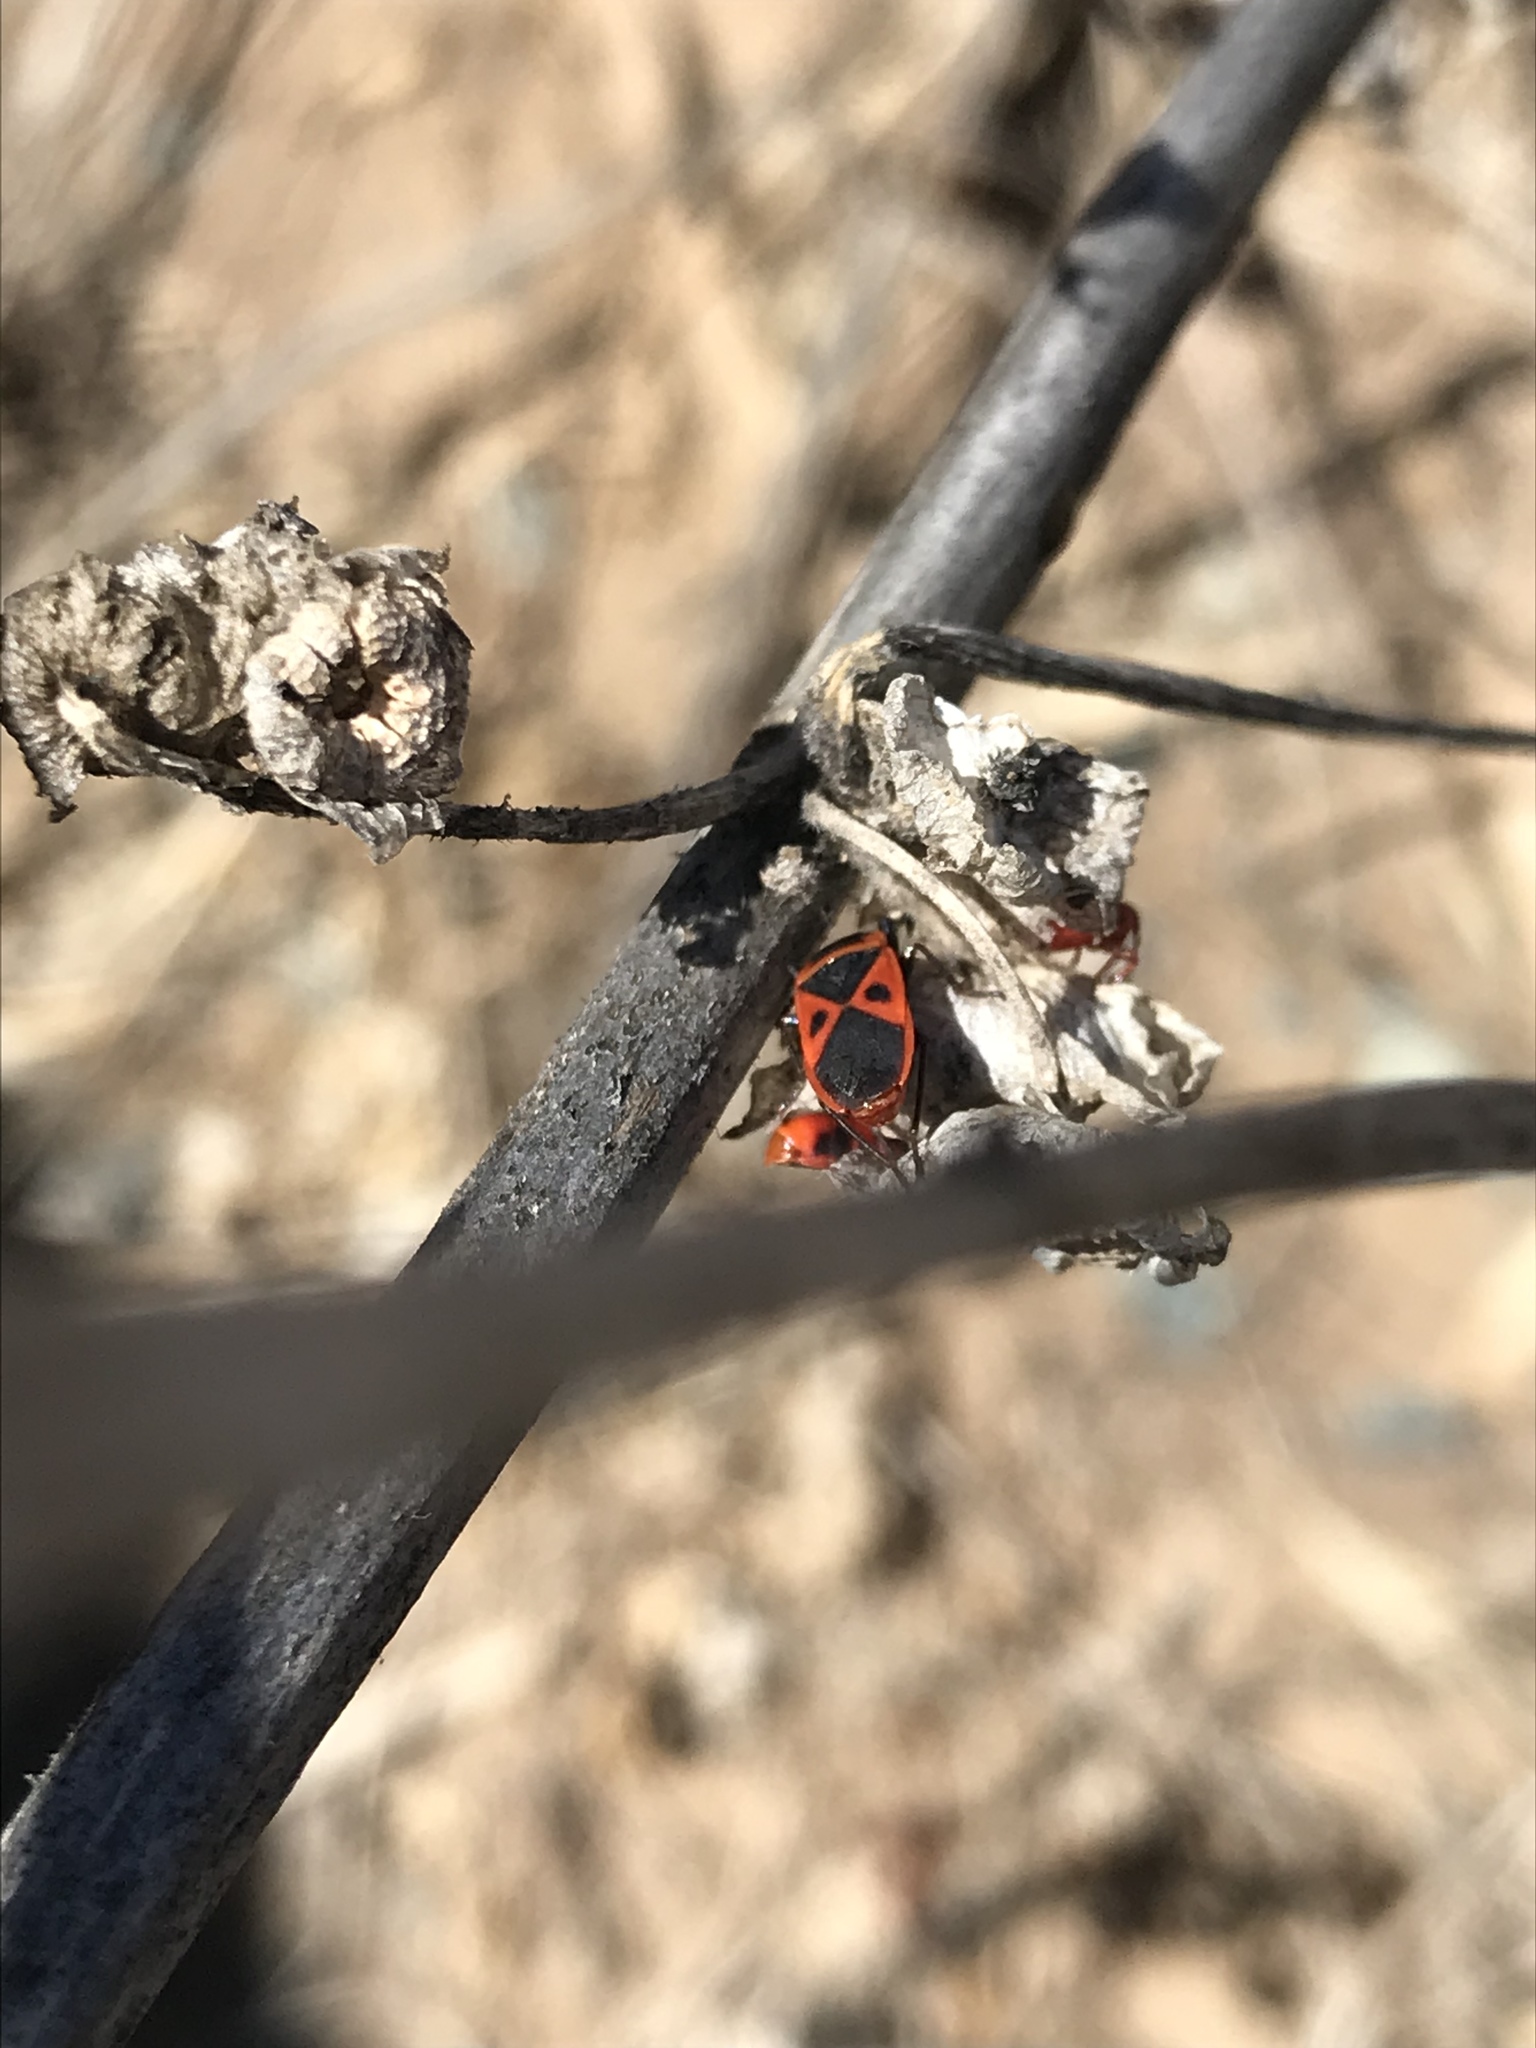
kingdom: Animalia
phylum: Arthropoda
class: Insecta
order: Hemiptera
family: Pyrrhocoridae
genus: Scantius
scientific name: Scantius aegyptius
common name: Red bug
